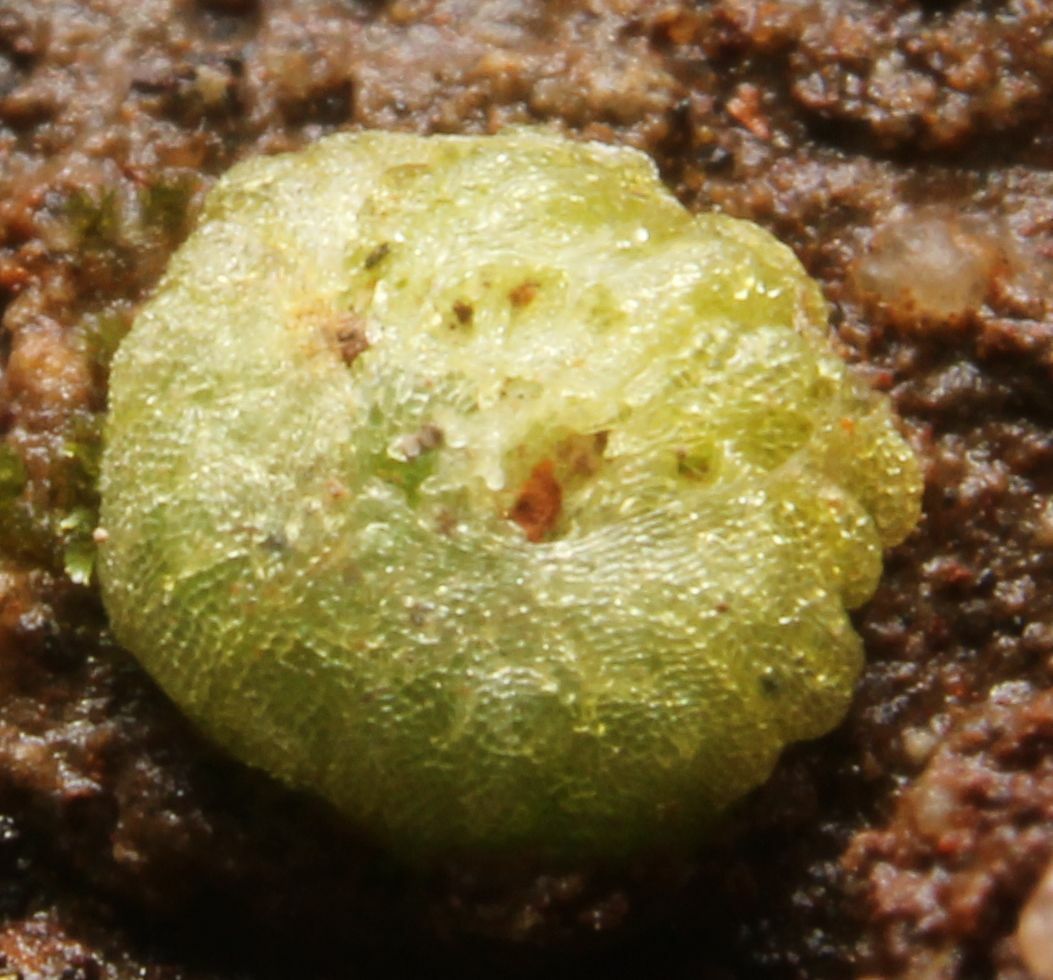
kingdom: Plantae
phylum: Marchantiophyta
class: Marchantiopsida
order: Sphaerocarpales
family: Monocarpaceae
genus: Monocarpus
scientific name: Monocarpus sphaerocarpus
